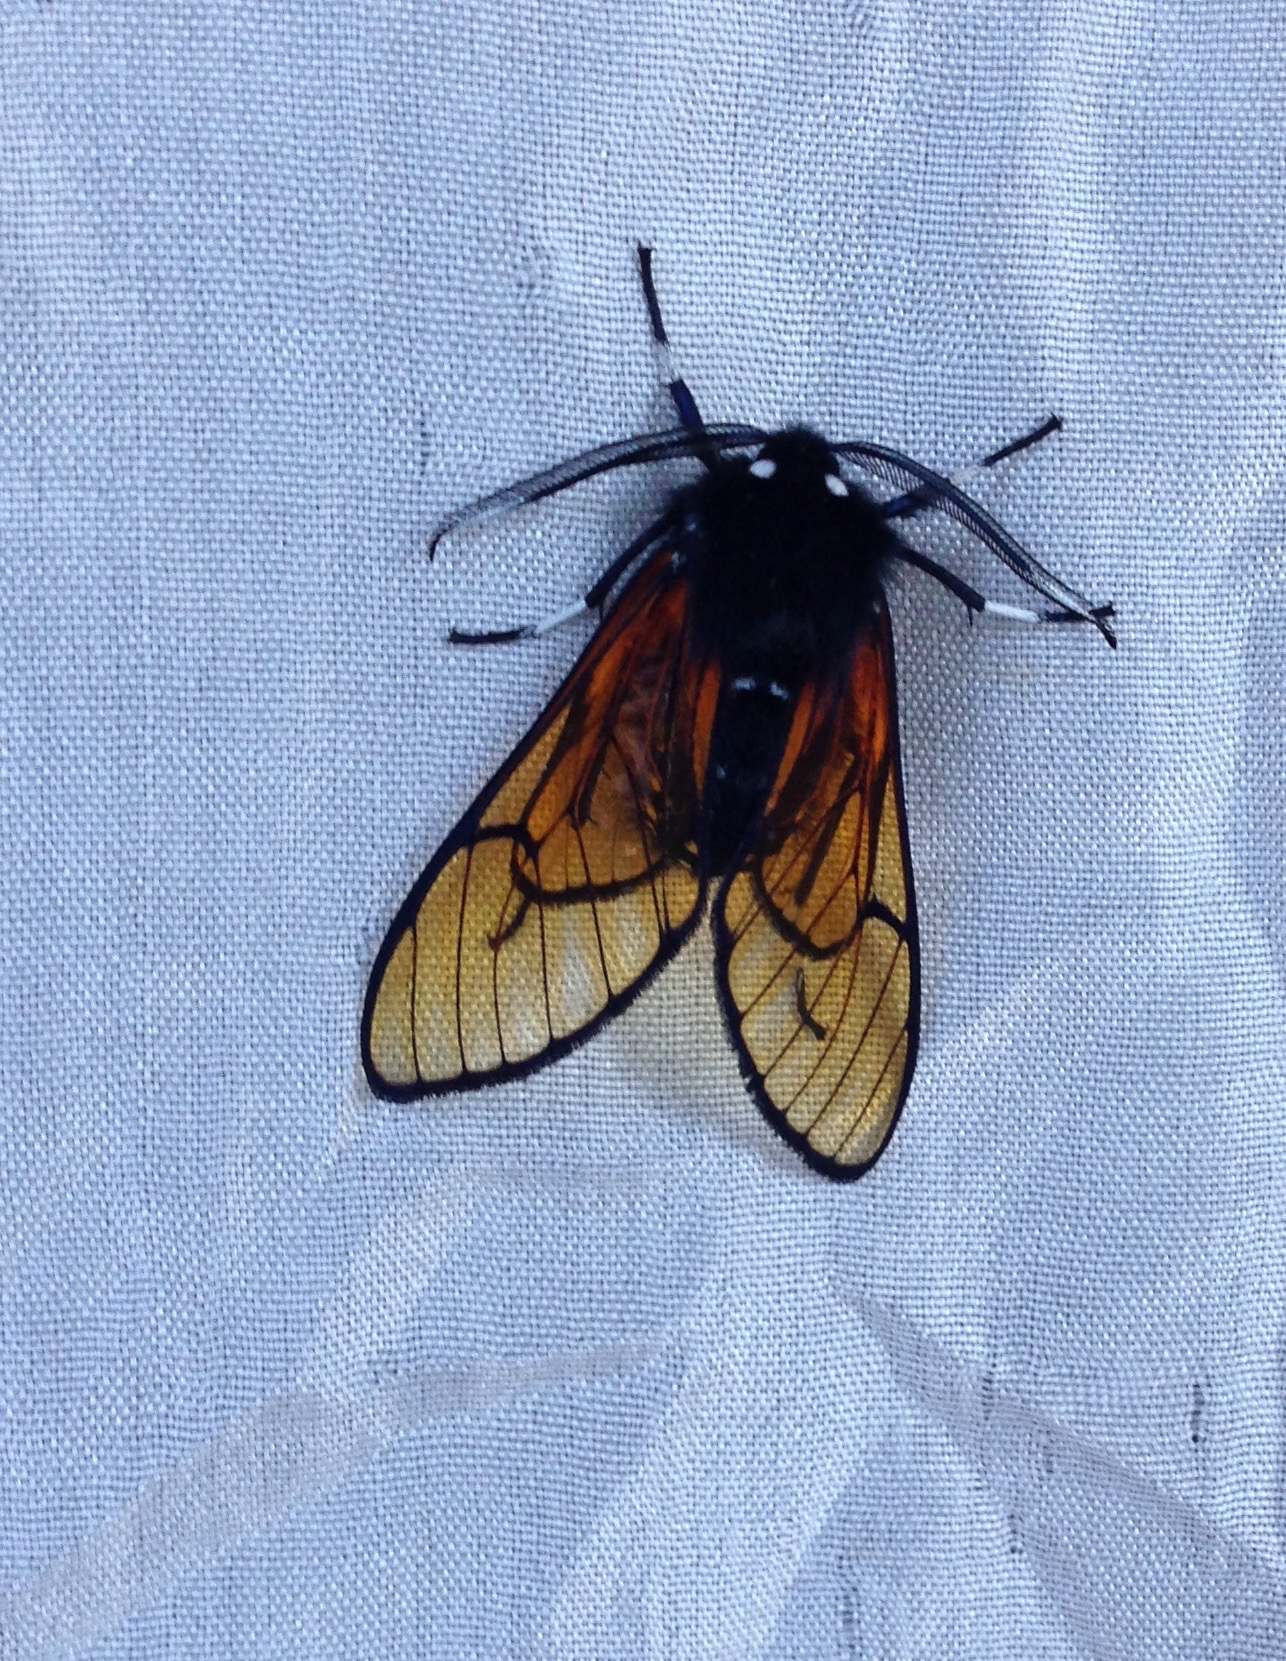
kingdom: Animalia
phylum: Arthropoda
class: Insecta
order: Lepidoptera
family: Erebidae
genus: Dasysphinx
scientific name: Dasysphinx volatilis
